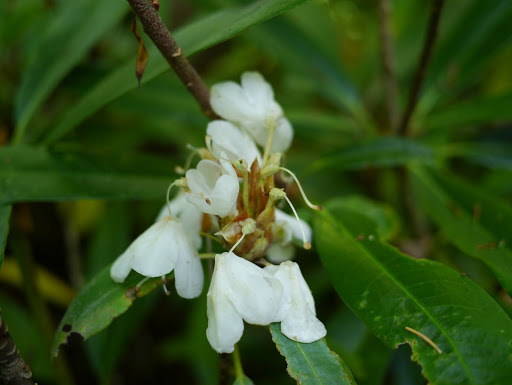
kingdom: Plantae
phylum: Tracheophyta
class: Magnoliopsida
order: Ericales
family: Ericaceae
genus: Rhododendron
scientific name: Rhododendron maximum
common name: Great rhododendron
